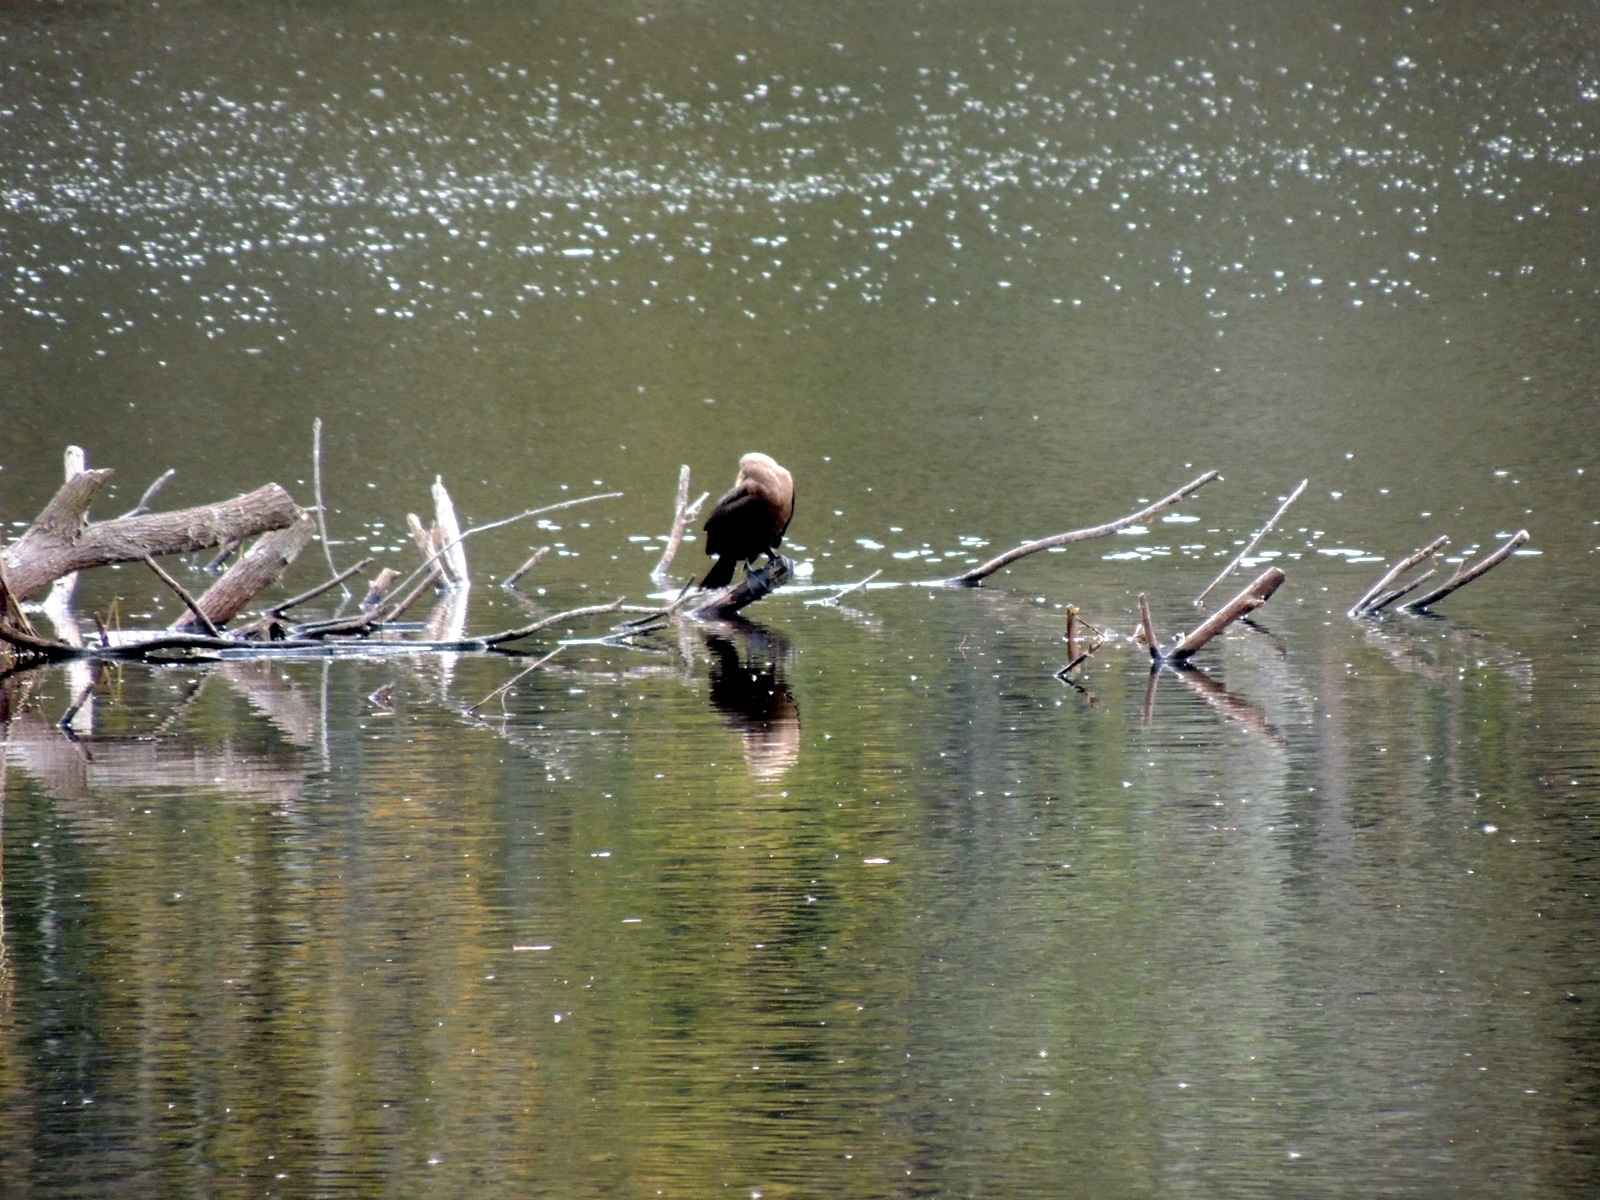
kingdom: Animalia
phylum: Chordata
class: Aves
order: Suliformes
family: Anhingidae
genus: Anhinga
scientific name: Anhinga anhinga
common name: Anhinga
